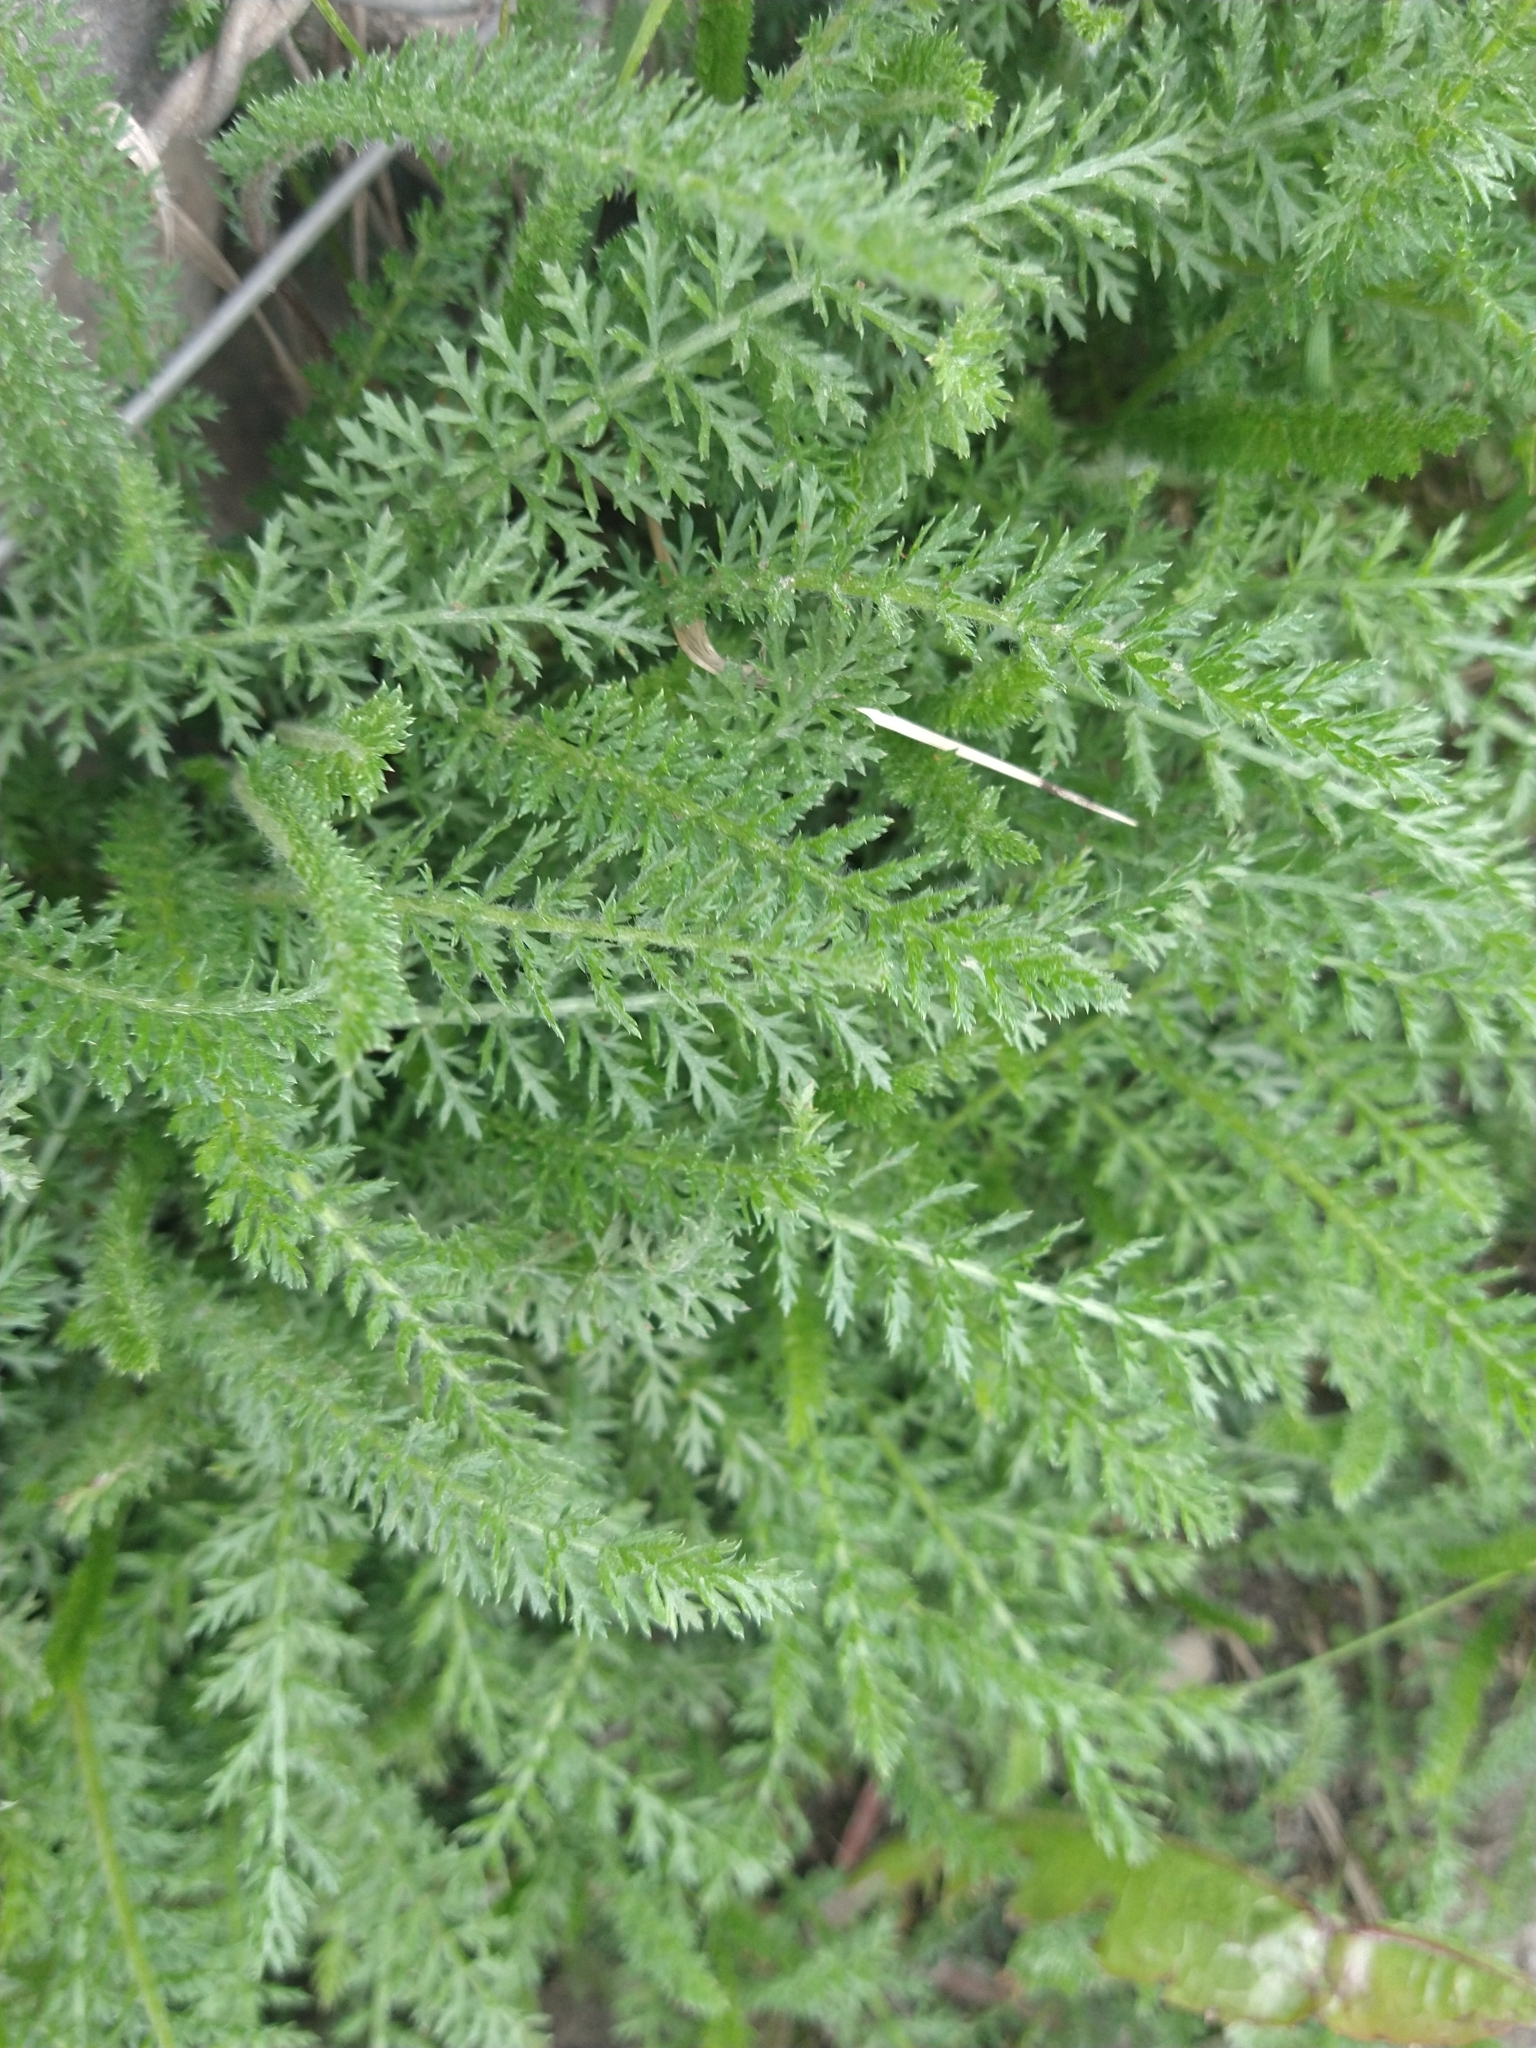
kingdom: Plantae
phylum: Tracheophyta
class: Magnoliopsida
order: Asterales
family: Asteraceae
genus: Achillea
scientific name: Achillea millefolium
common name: Yarrow
